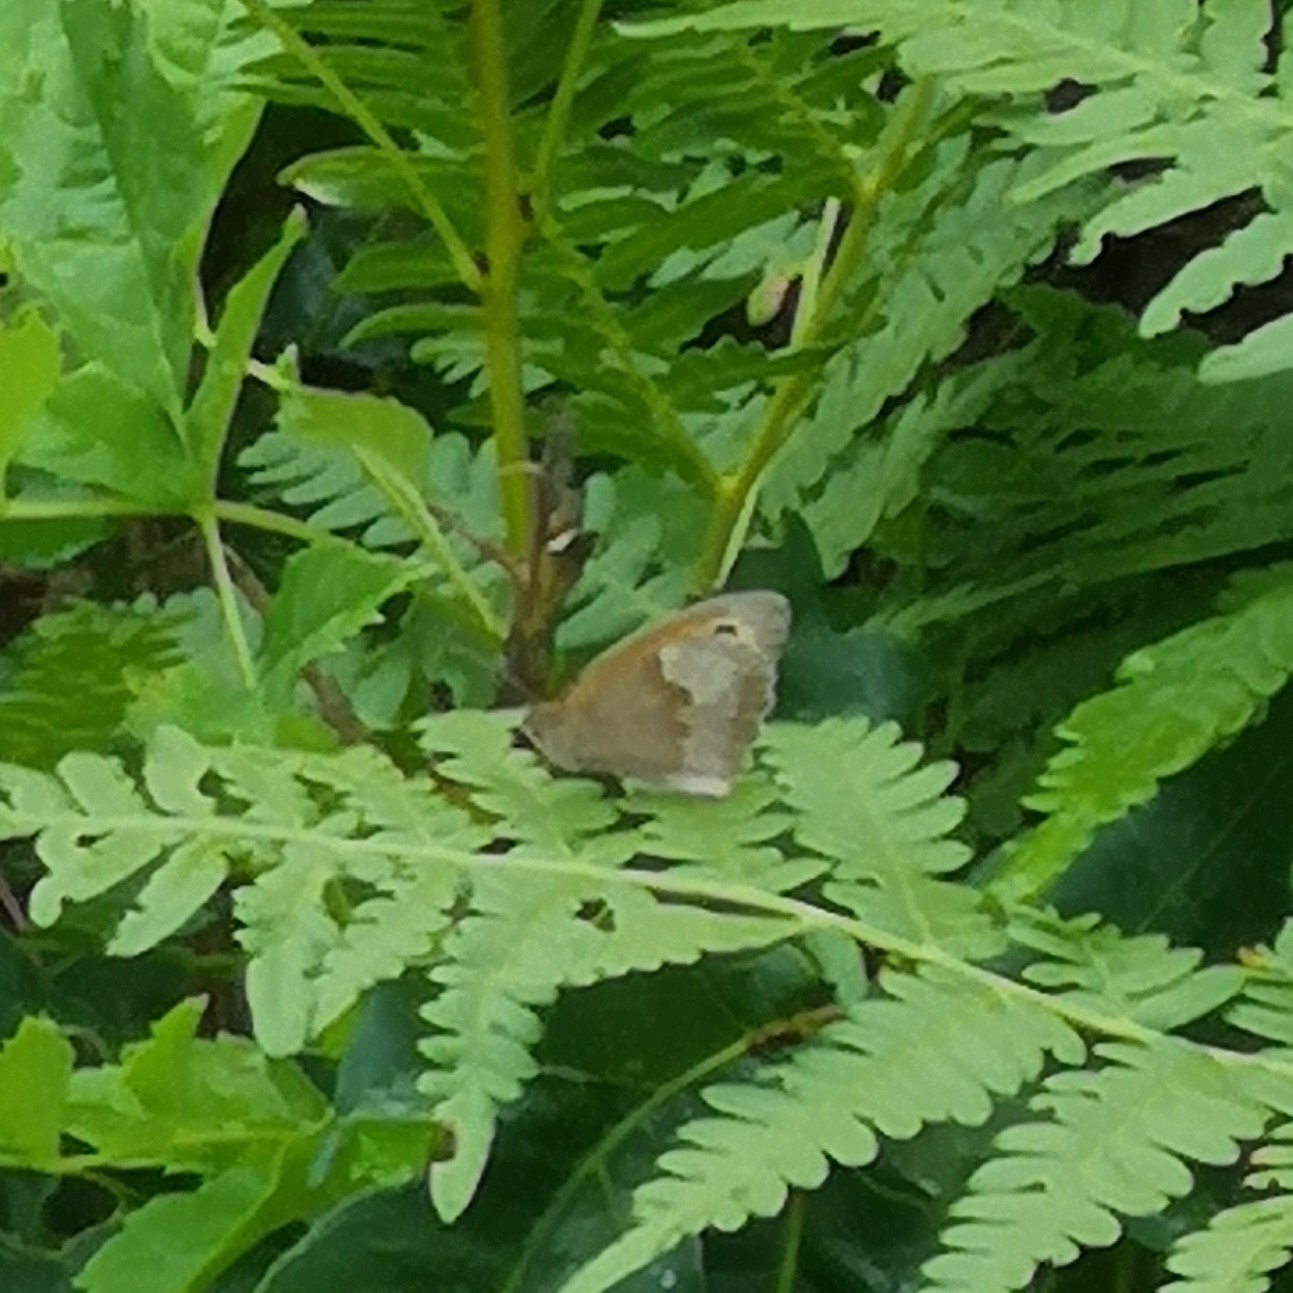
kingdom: Animalia
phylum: Arthropoda
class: Insecta
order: Lepidoptera
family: Nymphalidae
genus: Maniola
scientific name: Maniola jurtina
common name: Meadow brown
